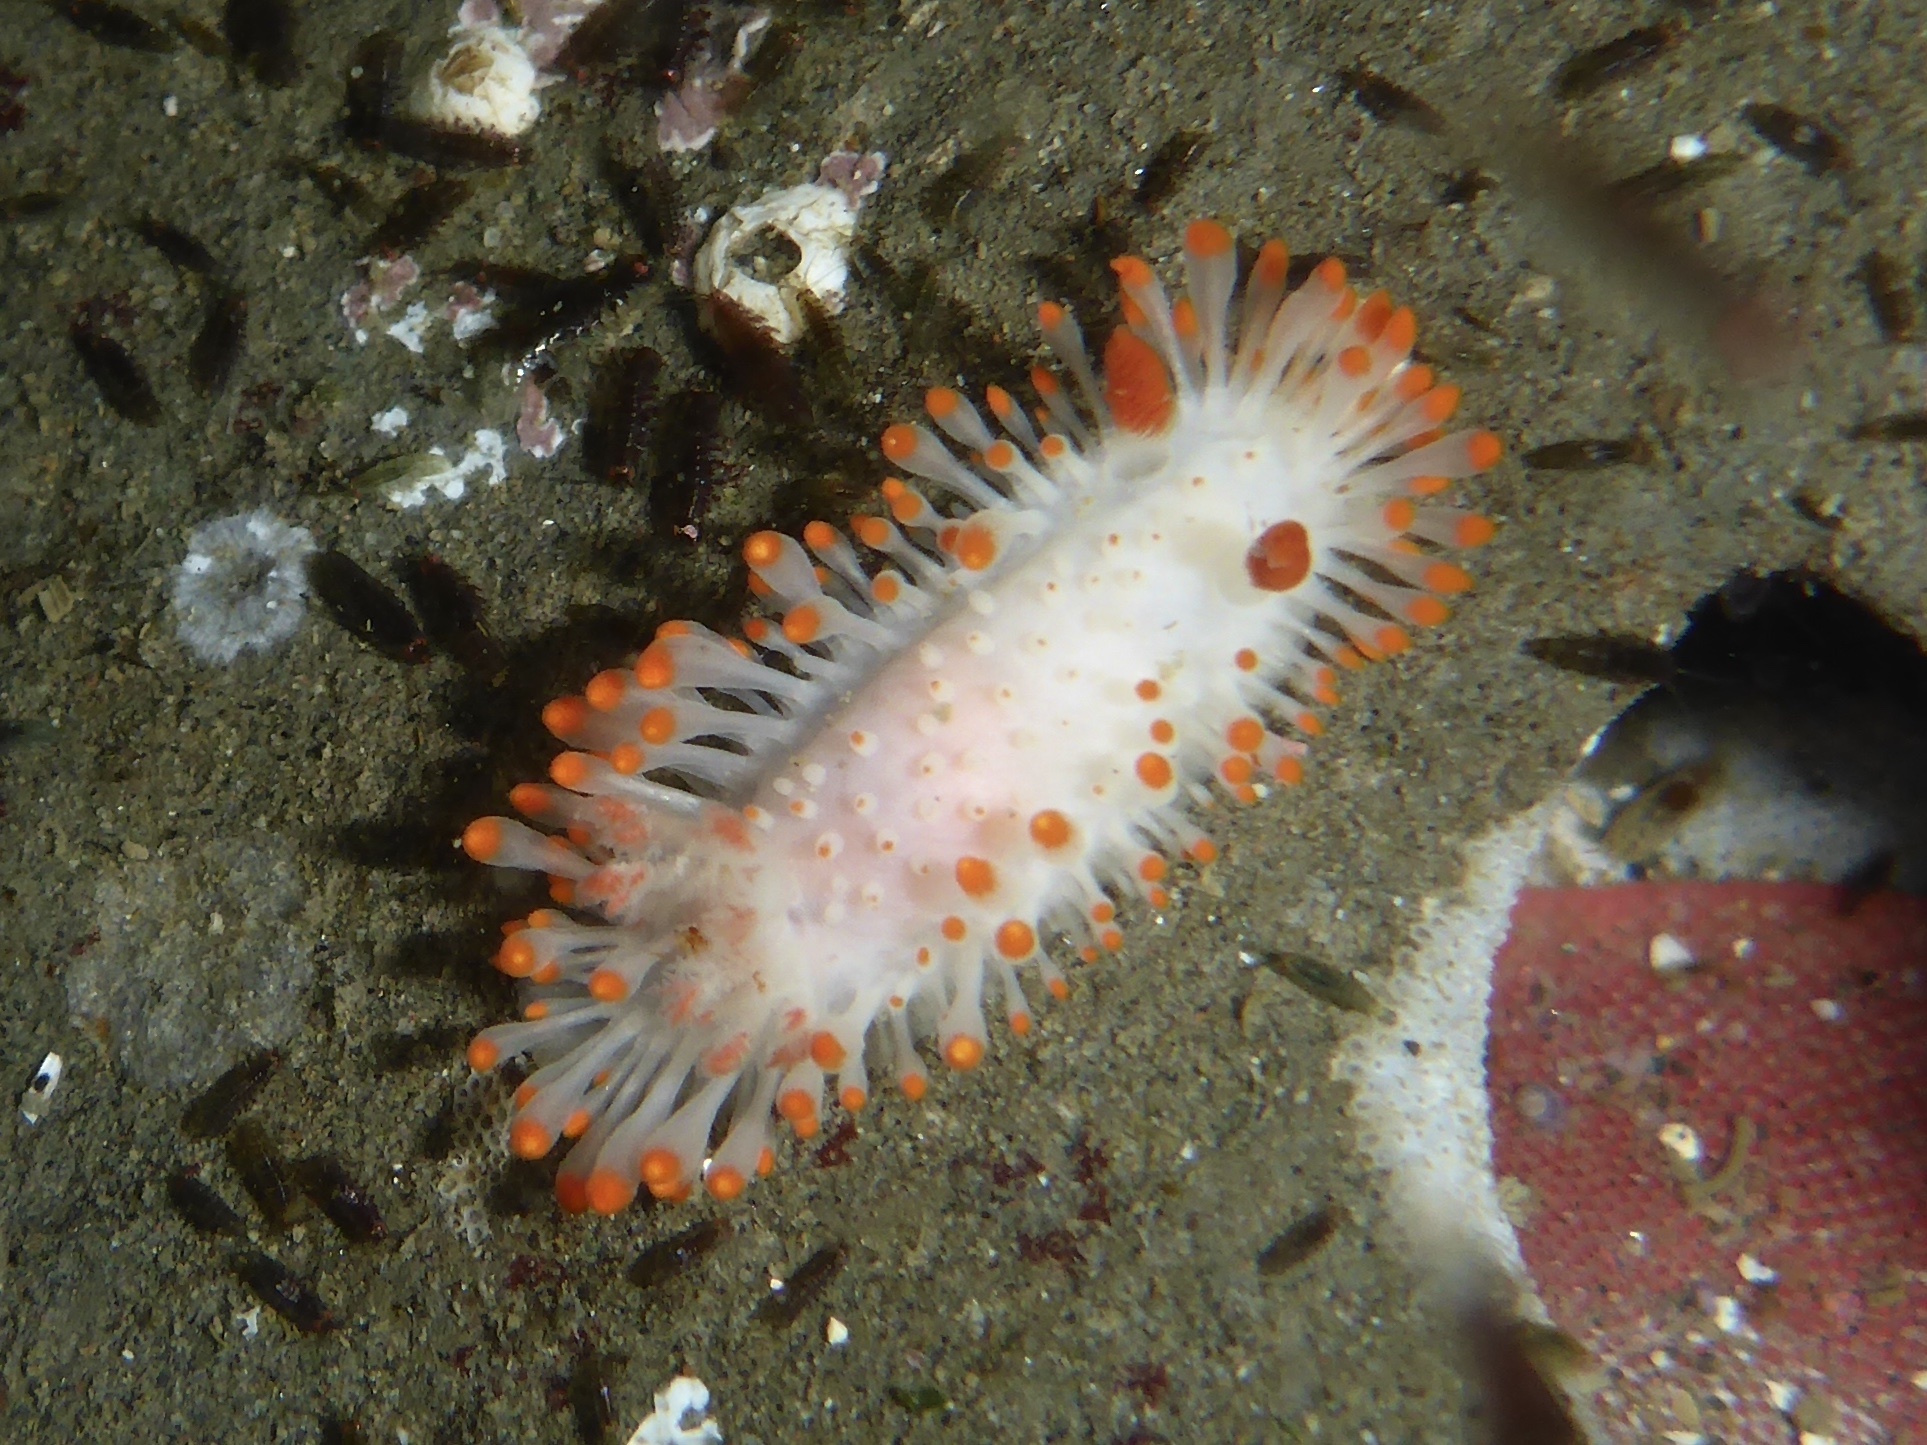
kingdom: Animalia
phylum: Mollusca
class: Gastropoda
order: Nudibranchia
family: Polyceridae
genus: Limacia
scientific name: Limacia cockerelli
